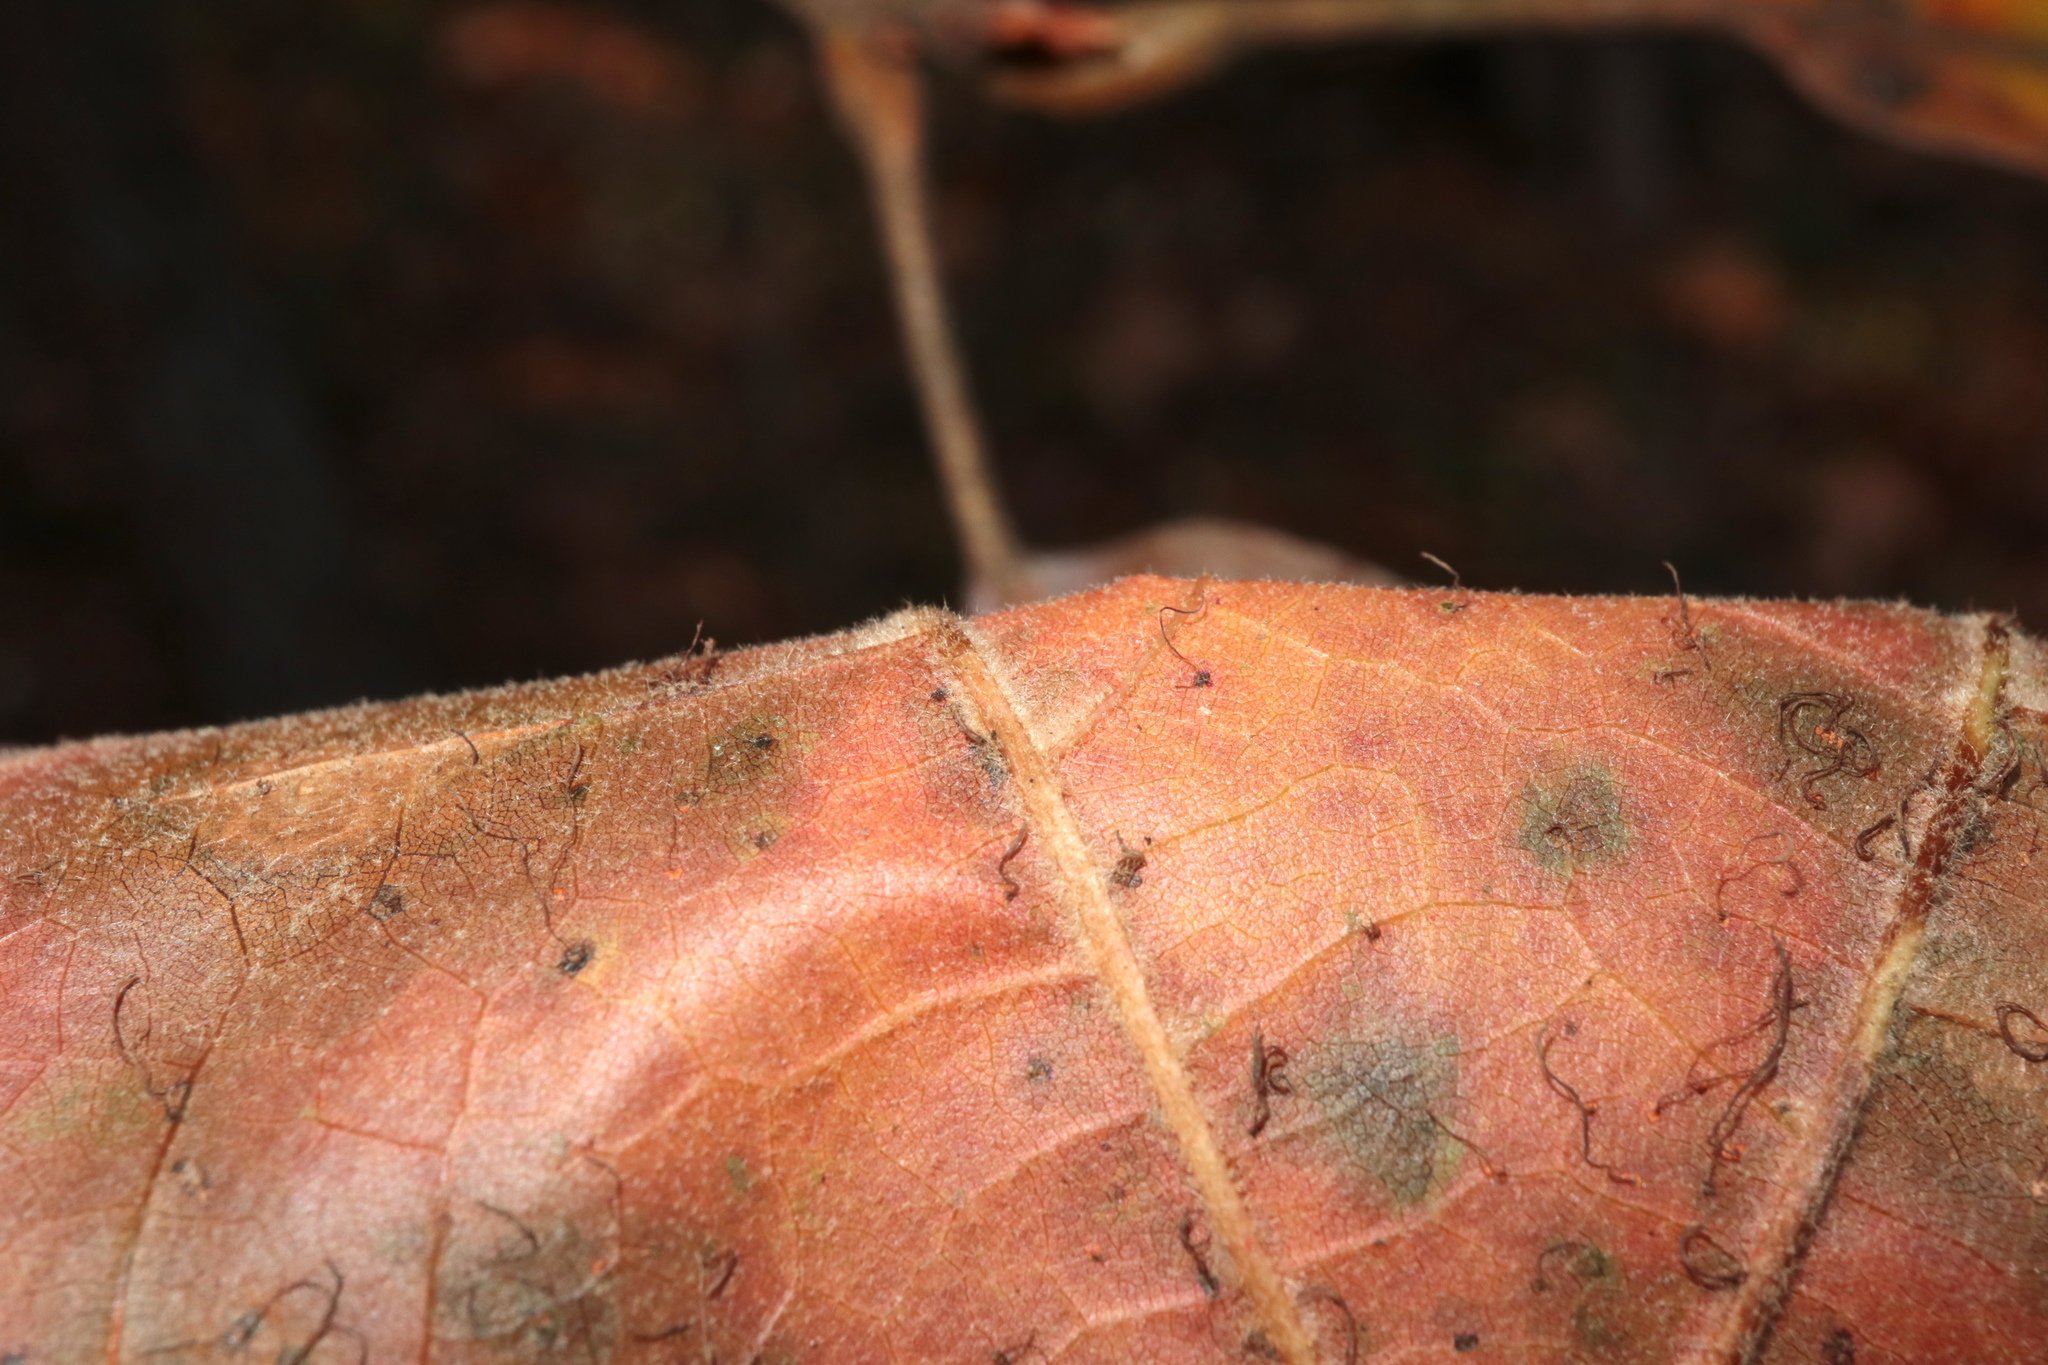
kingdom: Fungi
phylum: Basidiomycota
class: Pucciniomycetes
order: Pucciniales
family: Cronartiaceae
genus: Cronartium
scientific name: Cronartium quercuum
